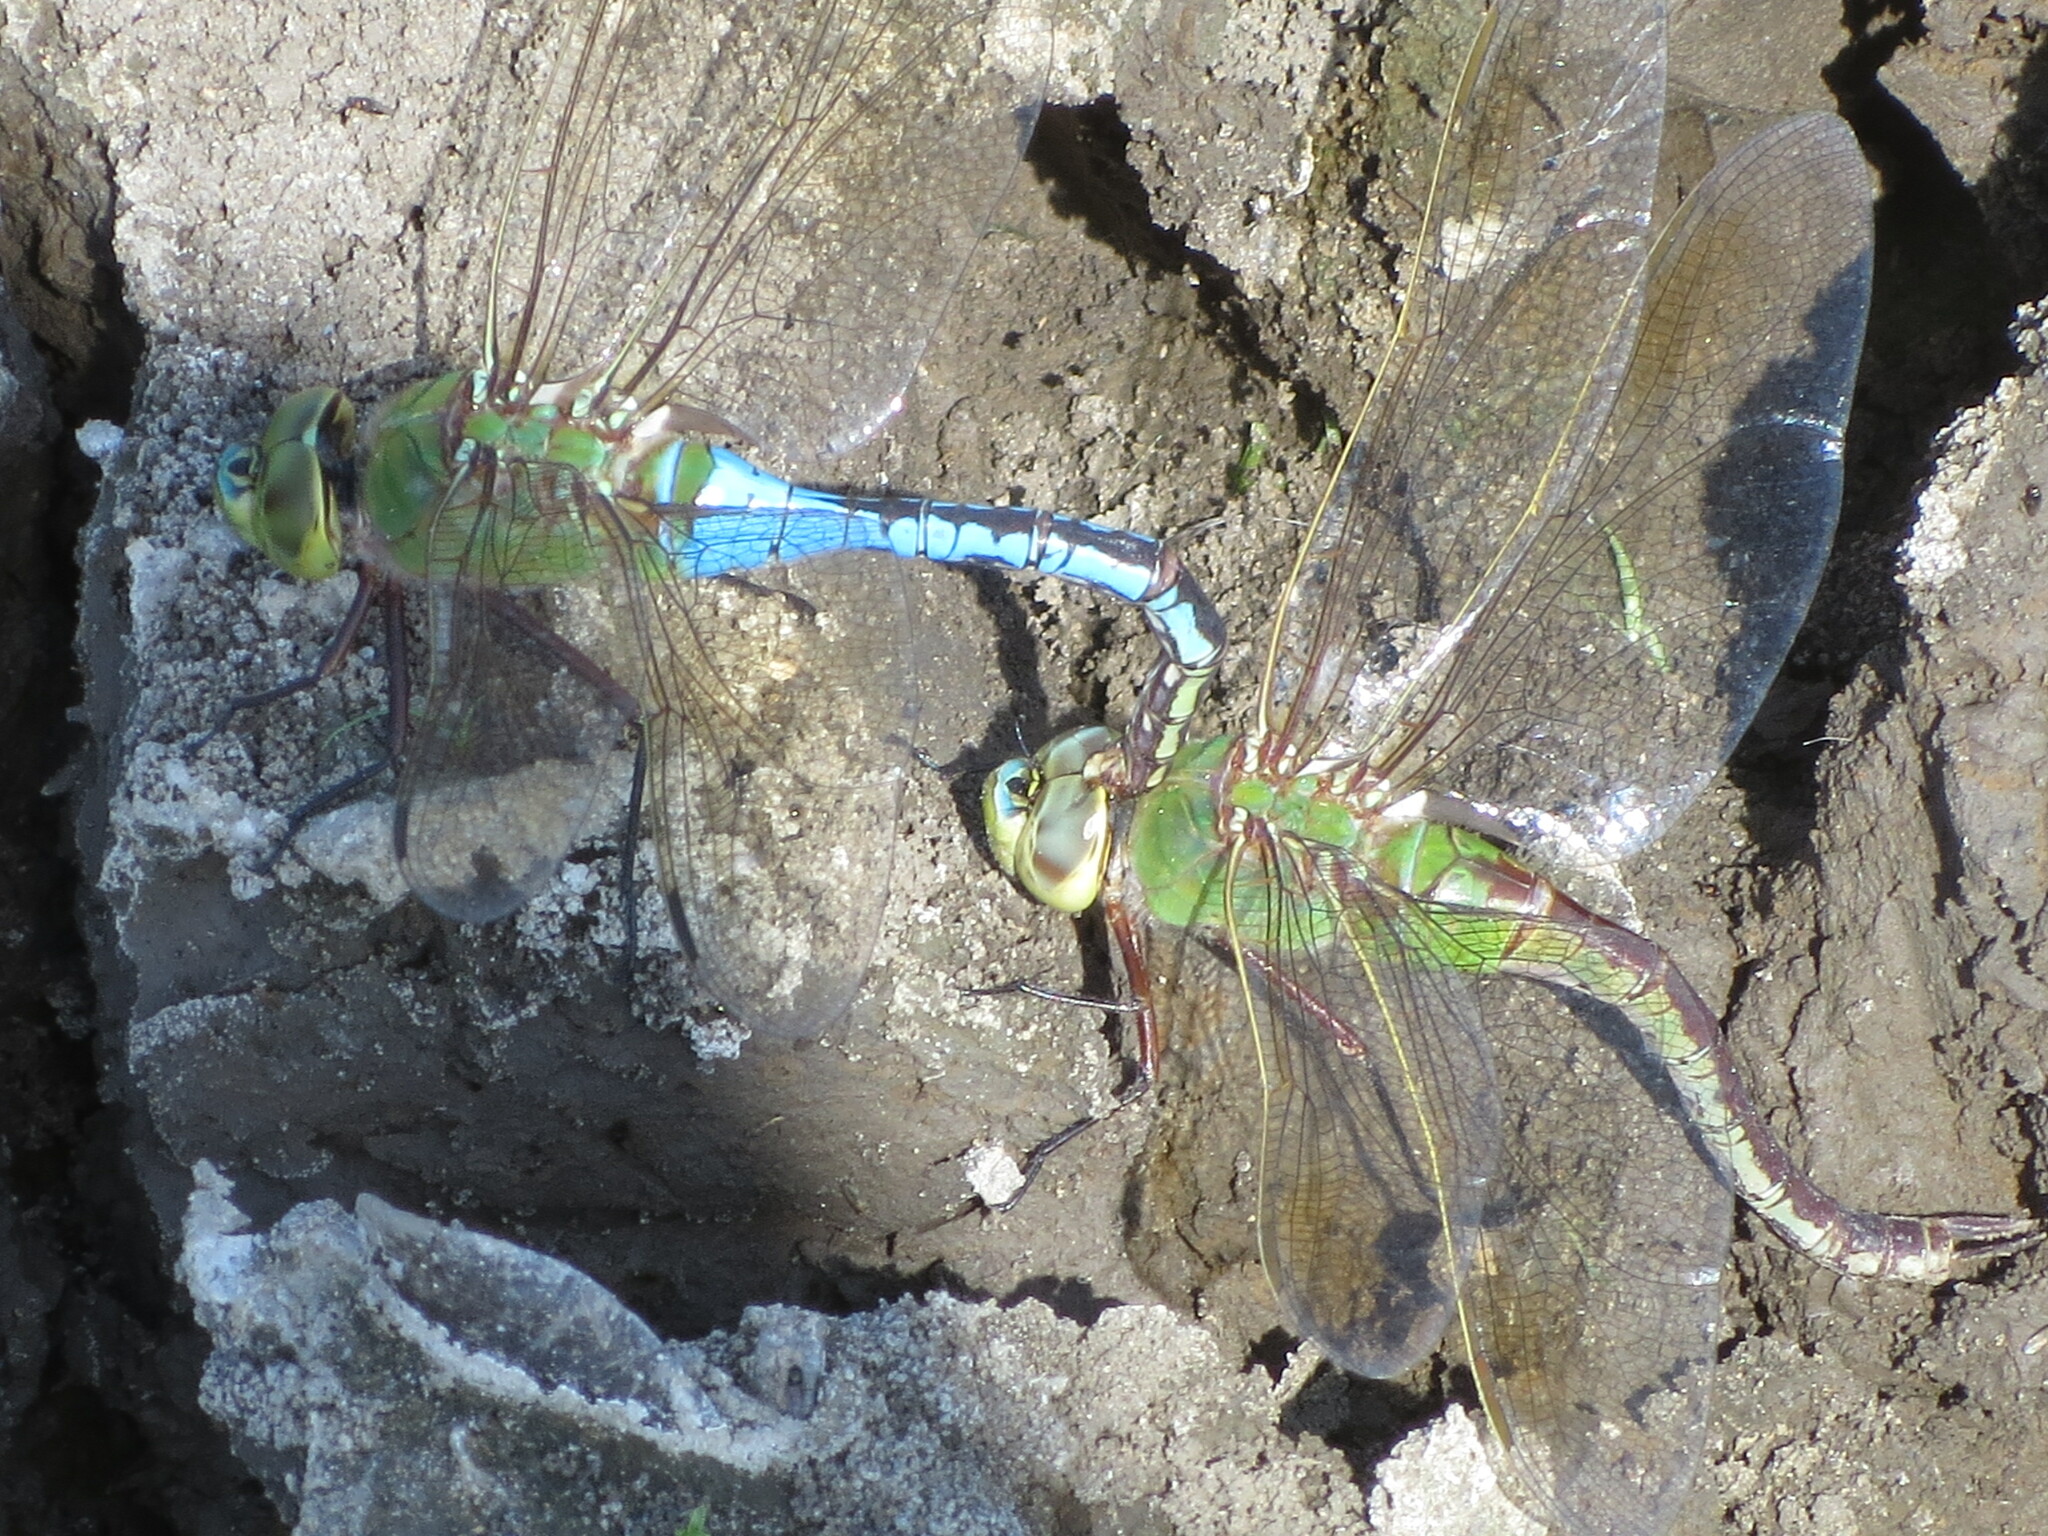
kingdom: Animalia
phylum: Arthropoda
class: Insecta
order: Odonata
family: Aeshnidae
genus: Anax
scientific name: Anax junius
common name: Common green darner
